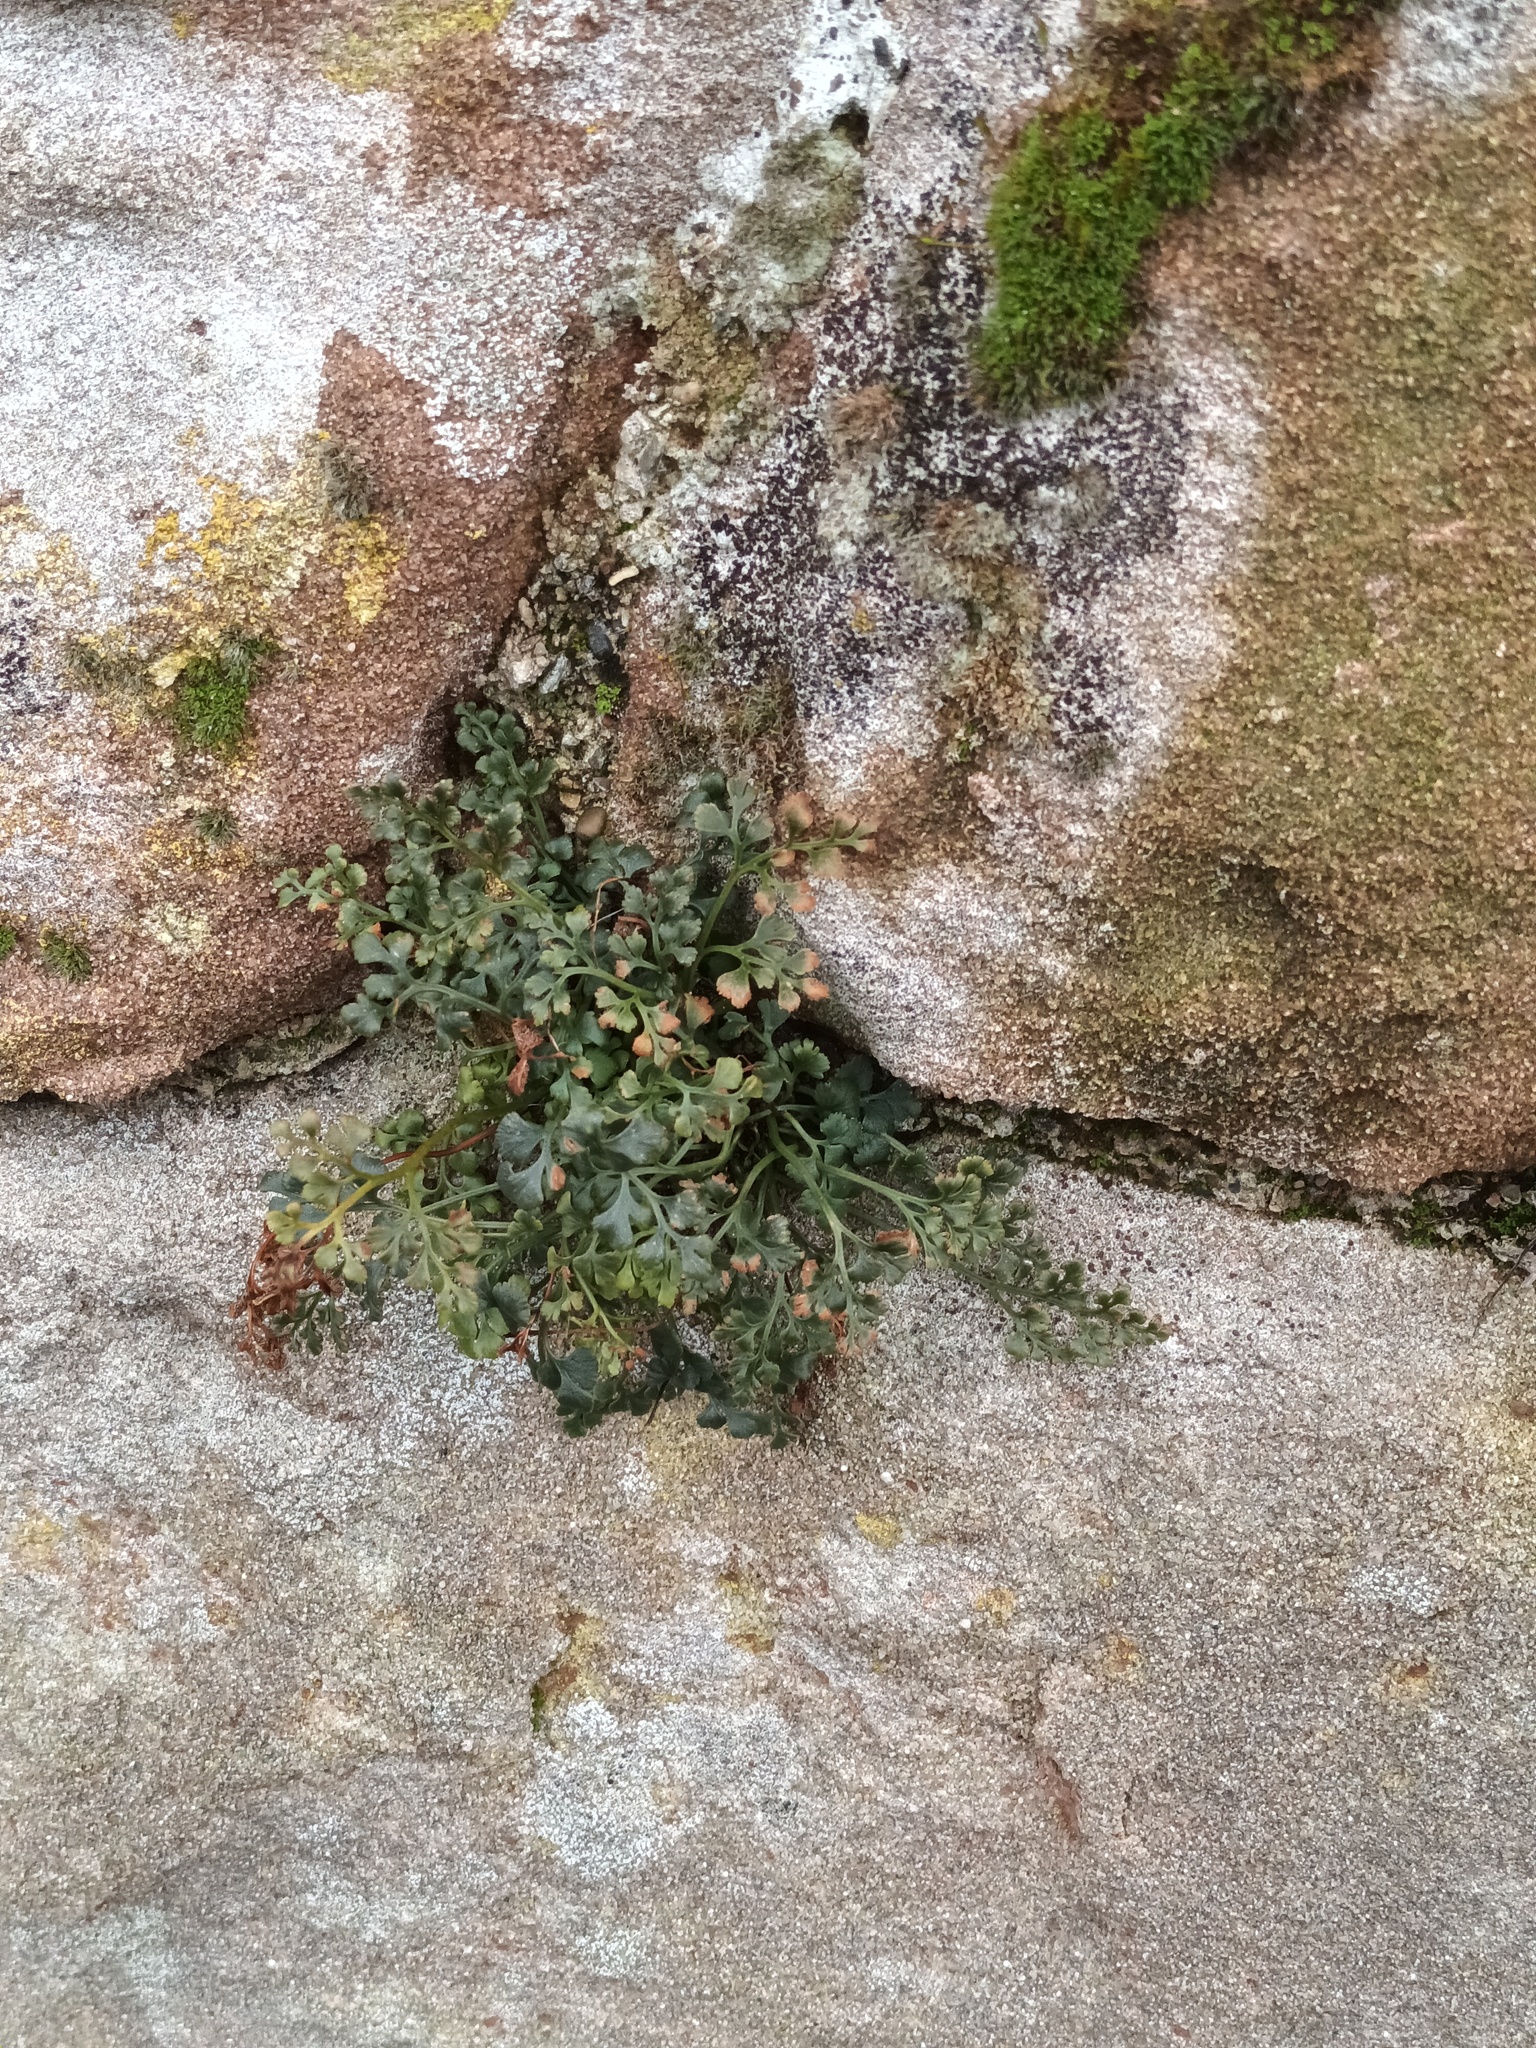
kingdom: Plantae
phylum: Tracheophyta
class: Polypodiopsida
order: Polypodiales
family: Aspleniaceae
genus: Asplenium
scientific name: Asplenium ruta-muraria
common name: Wall-rue
